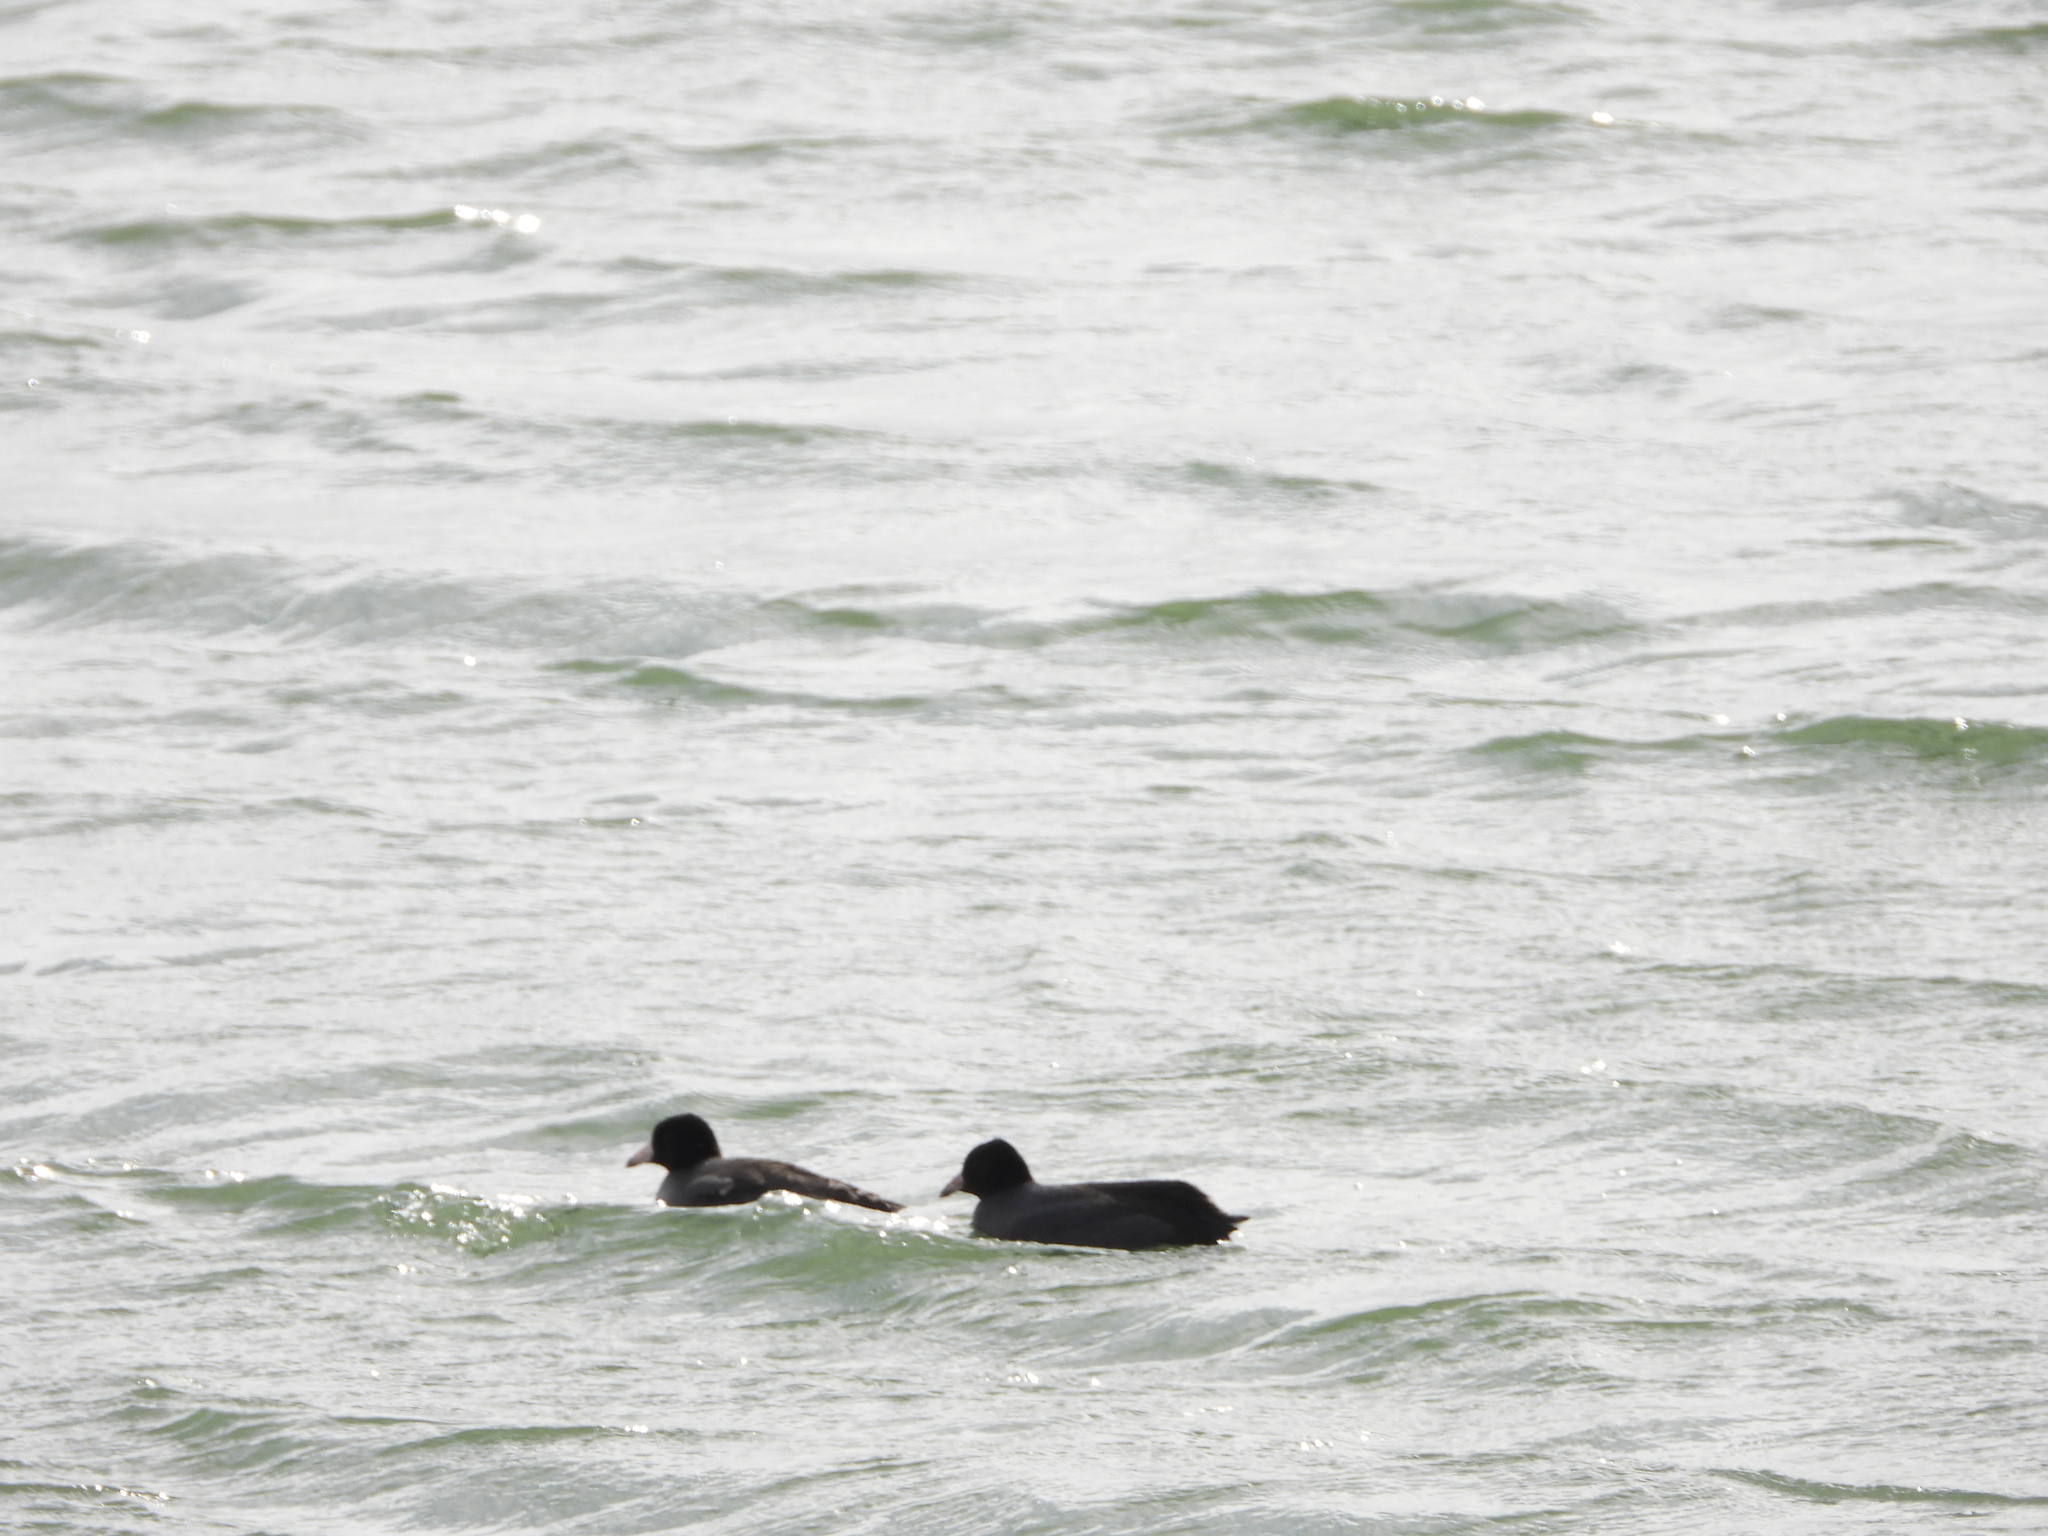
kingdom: Animalia
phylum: Chordata
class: Aves
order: Gruiformes
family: Rallidae
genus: Fulica
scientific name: Fulica americana
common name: American coot
